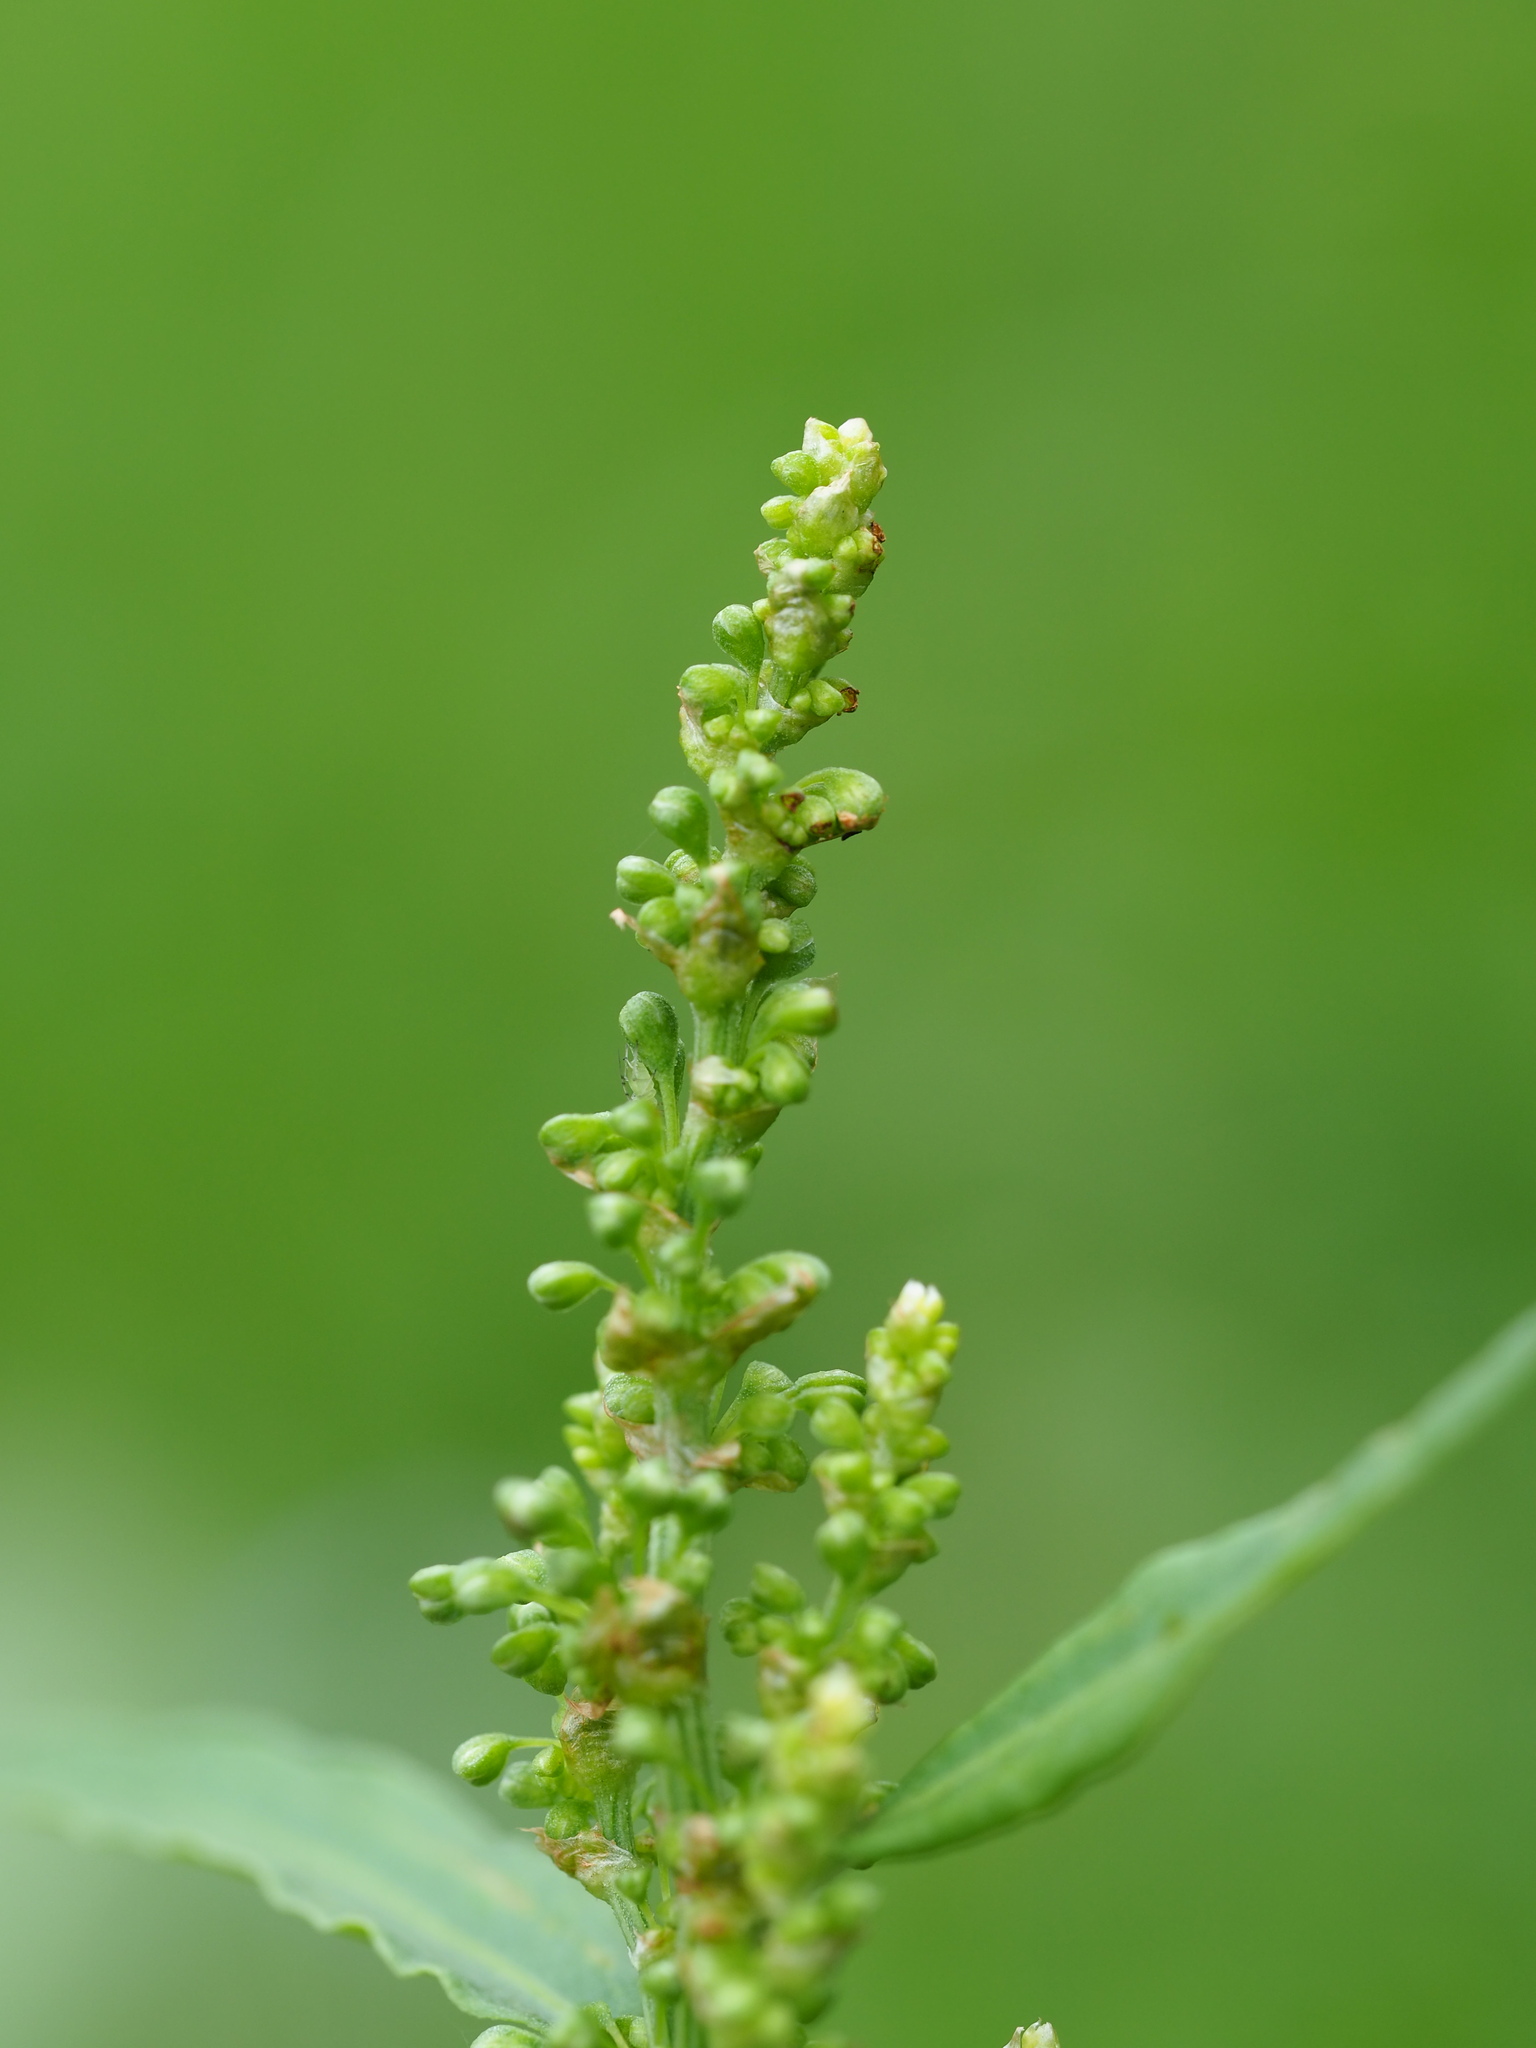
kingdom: Plantae
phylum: Tracheophyta
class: Magnoliopsida
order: Caryophyllales
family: Polygonaceae
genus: Rumex
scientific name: Rumex japonicus
